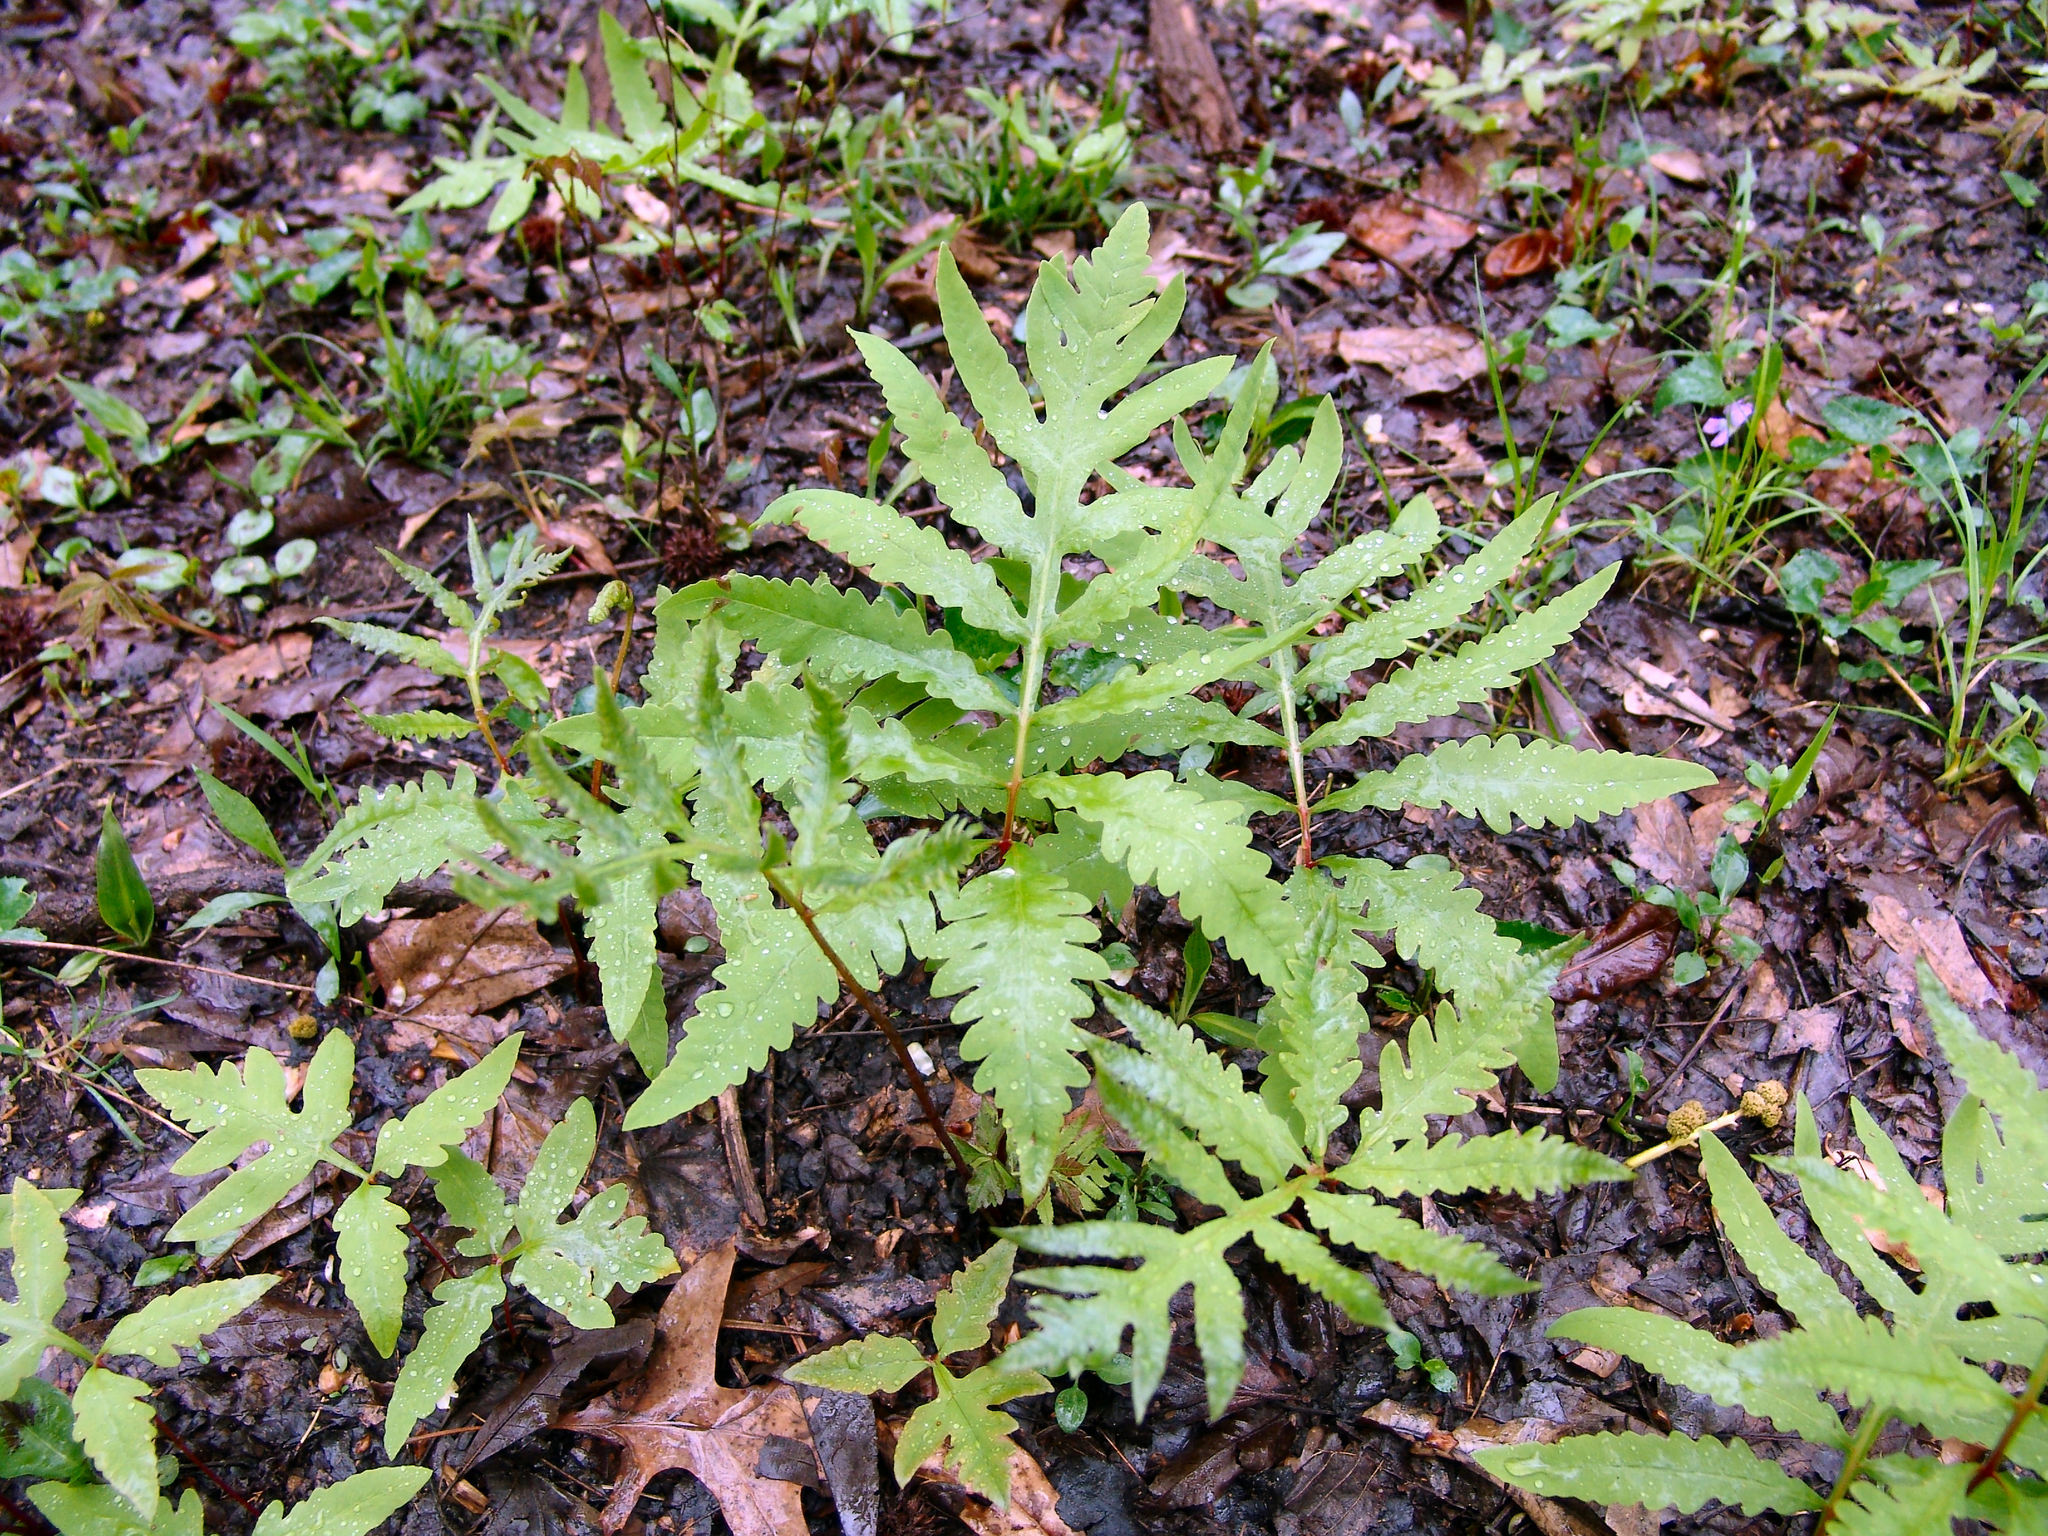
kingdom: Plantae
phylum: Tracheophyta
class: Polypodiopsida
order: Polypodiales
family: Onocleaceae
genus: Onoclea
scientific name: Onoclea sensibilis
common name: Sensitive fern
